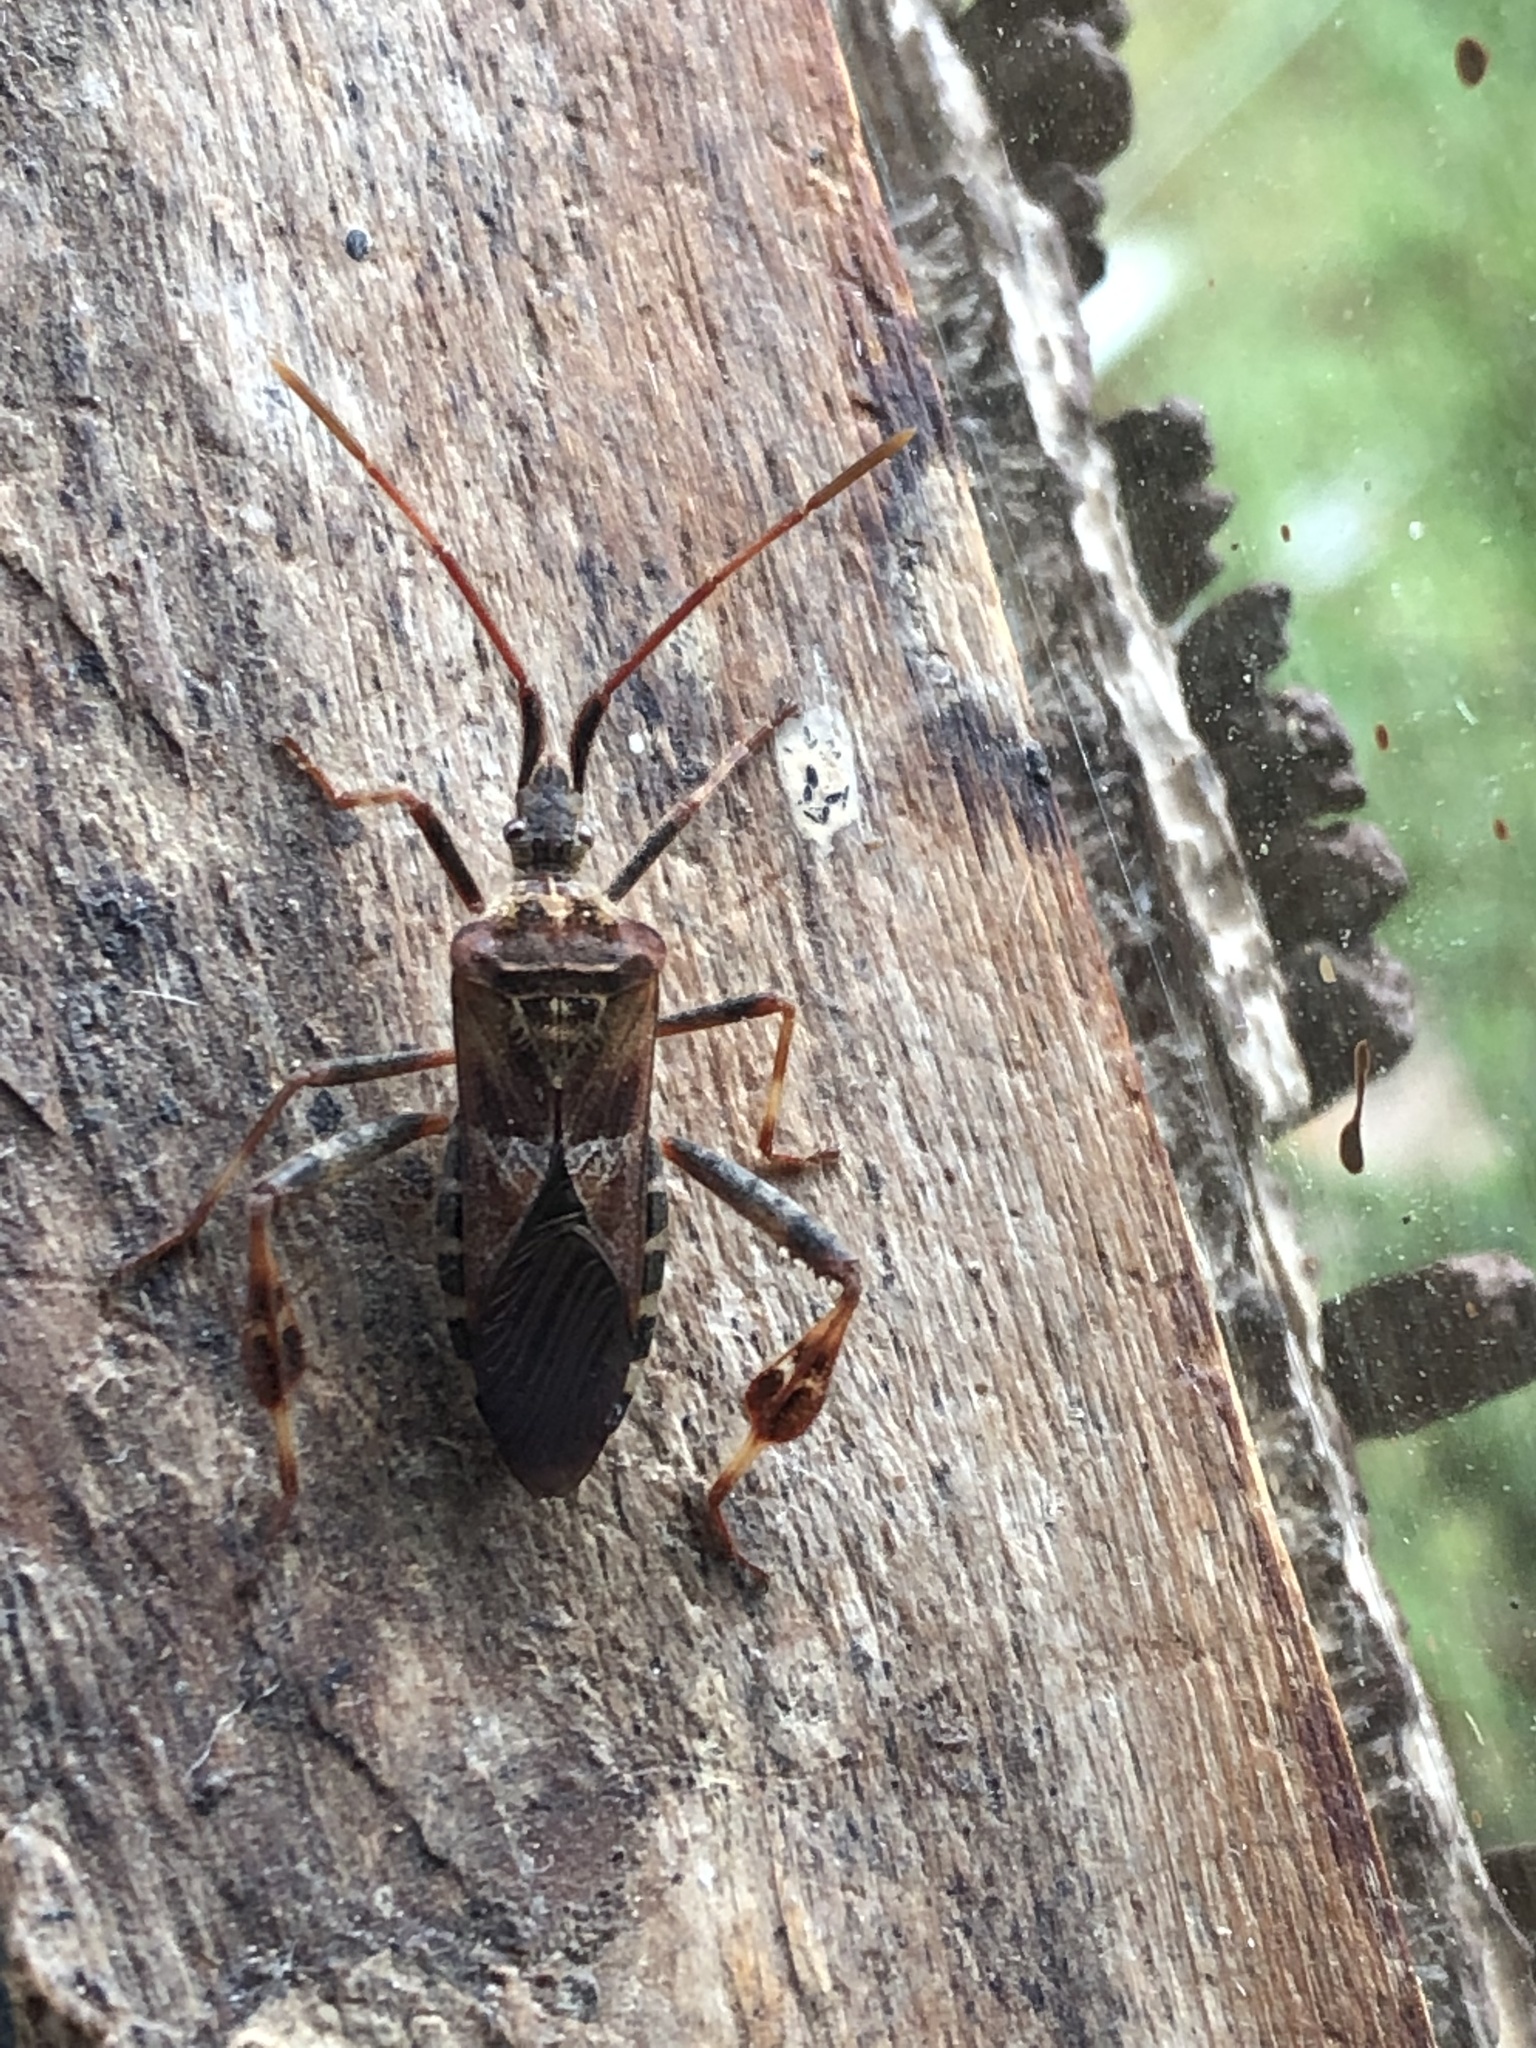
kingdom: Animalia
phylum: Arthropoda
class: Insecta
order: Hemiptera
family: Coreidae
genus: Leptoglossus
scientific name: Leptoglossus occidentalis
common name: Western conifer-seed bug
